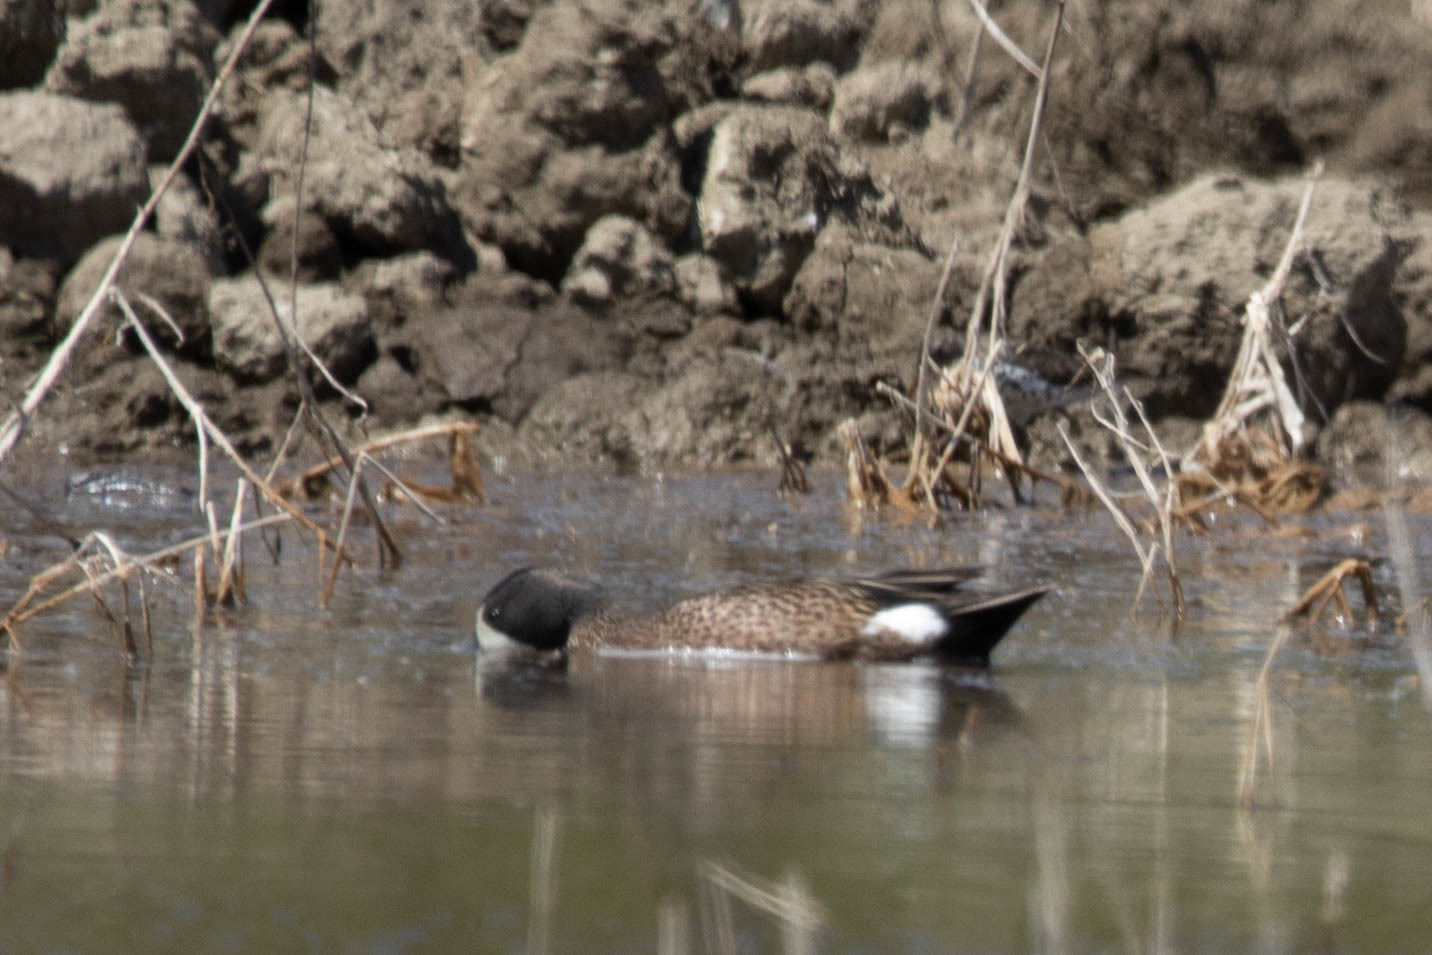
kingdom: Animalia
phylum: Chordata
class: Aves
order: Anseriformes
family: Anatidae
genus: Spatula
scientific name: Spatula discors
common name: Blue-winged teal
